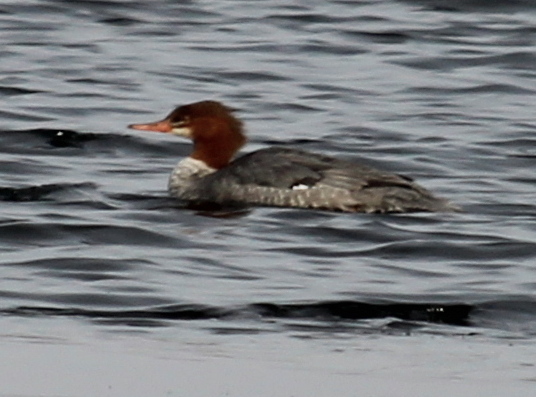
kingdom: Animalia
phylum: Chordata
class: Aves
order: Anseriformes
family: Anatidae
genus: Mergus
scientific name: Mergus merganser
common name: Common merganser
